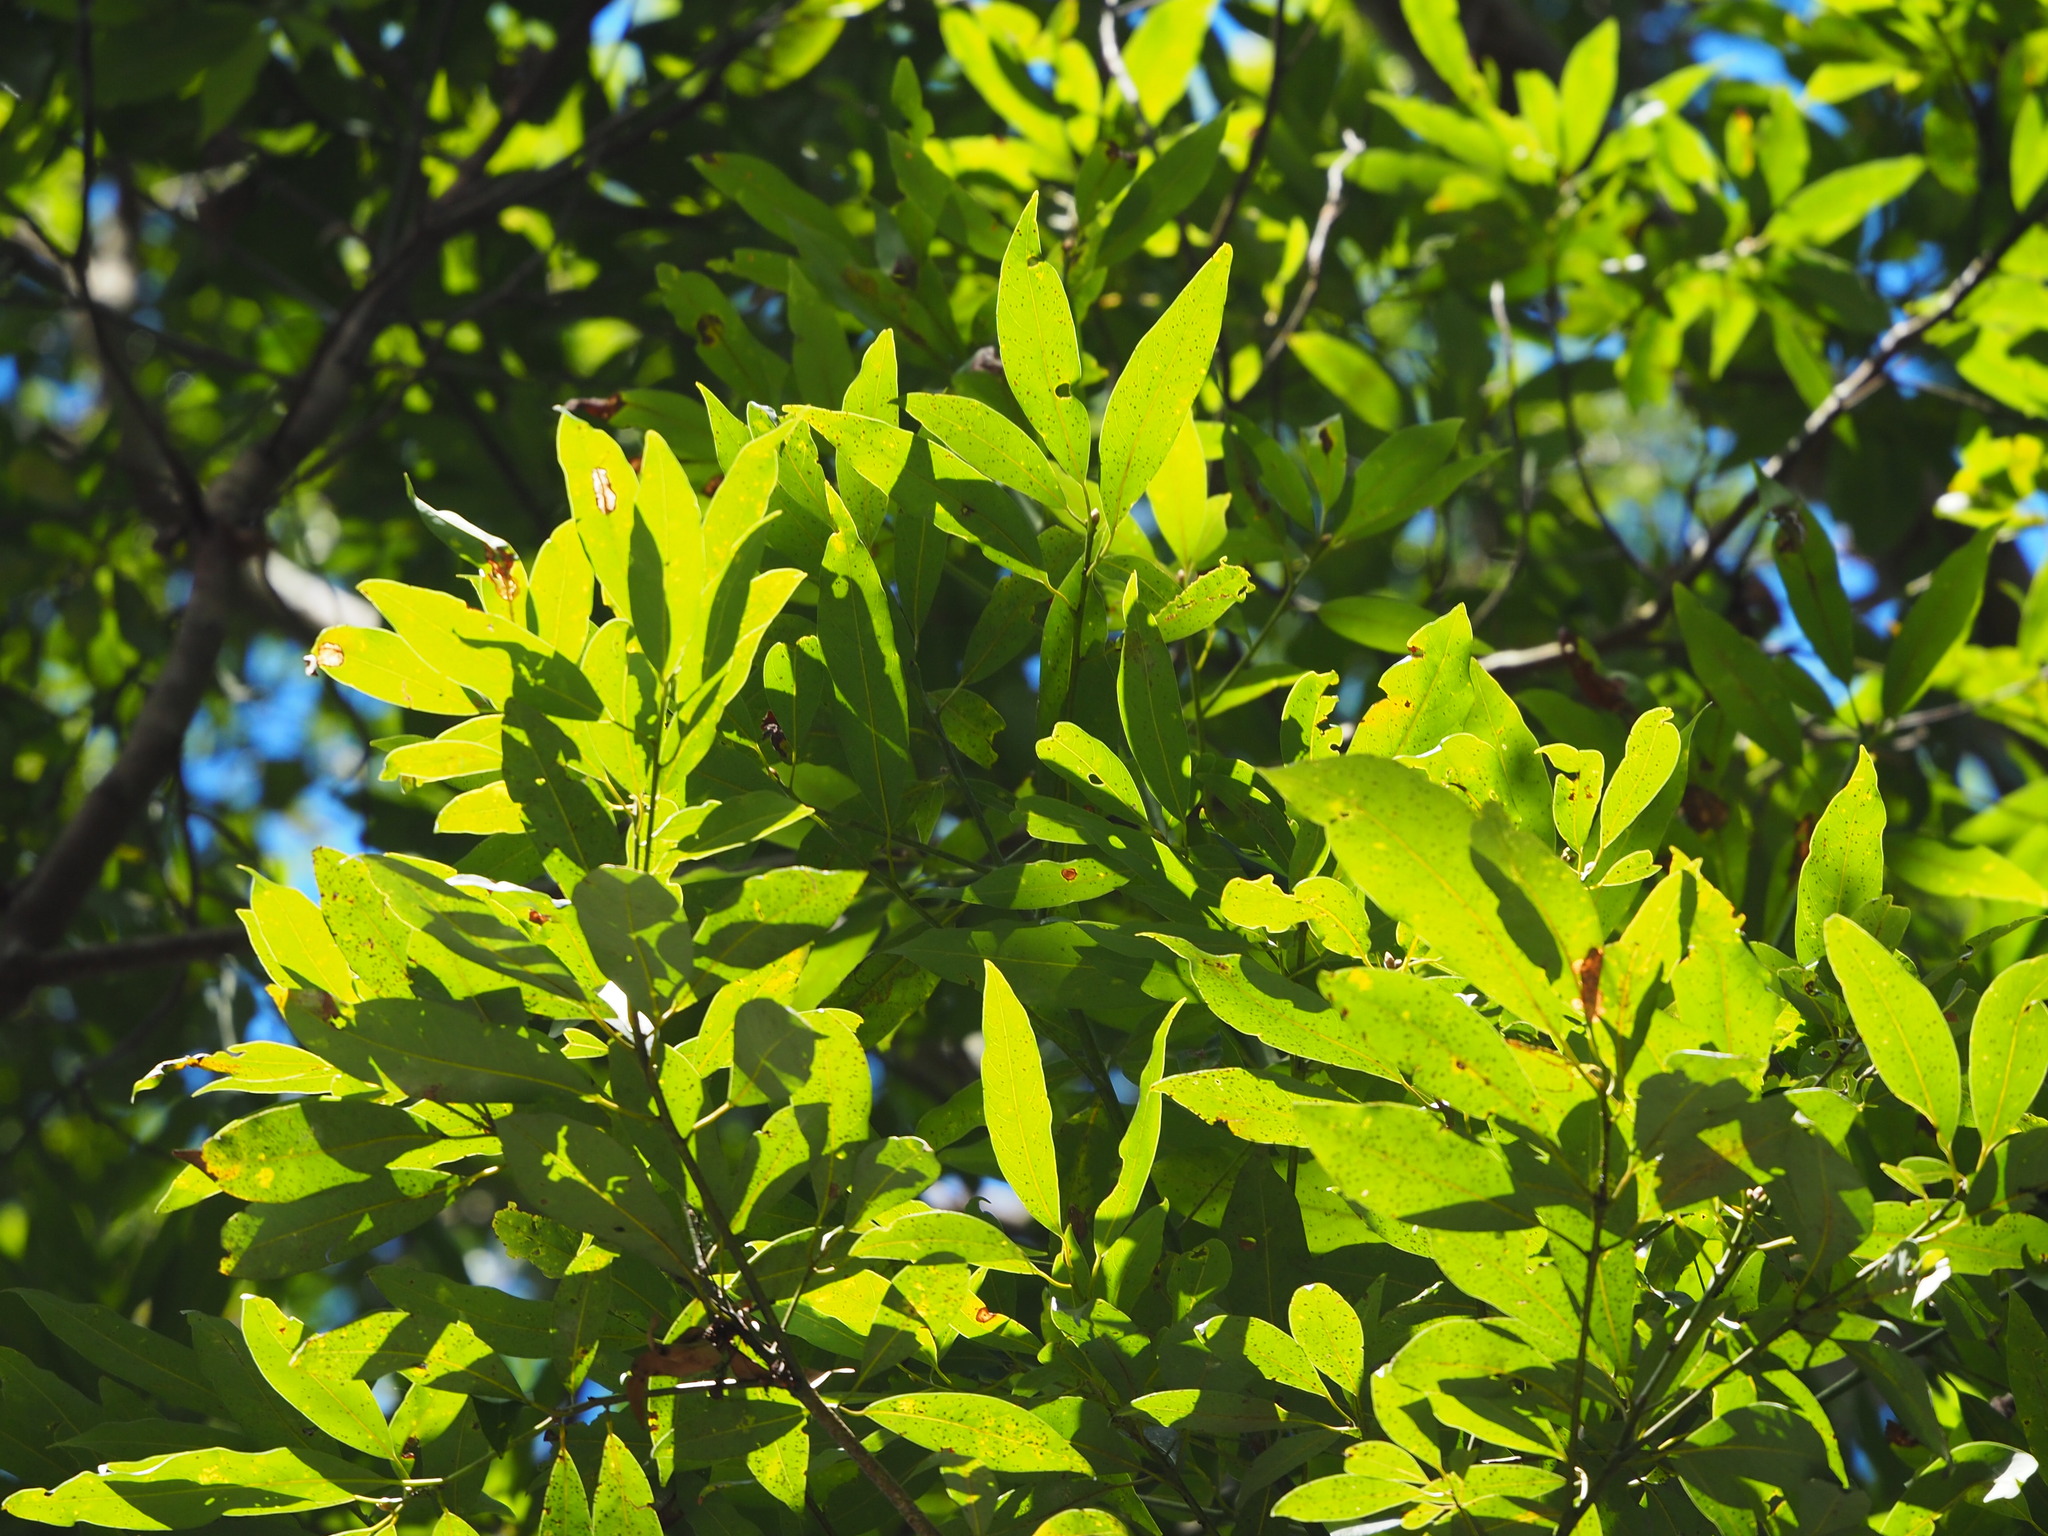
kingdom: Plantae
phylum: Tracheophyta
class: Magnoliopsida
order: Laurales
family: Lauraceae
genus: Machilus
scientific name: Machilus zuihoensis
